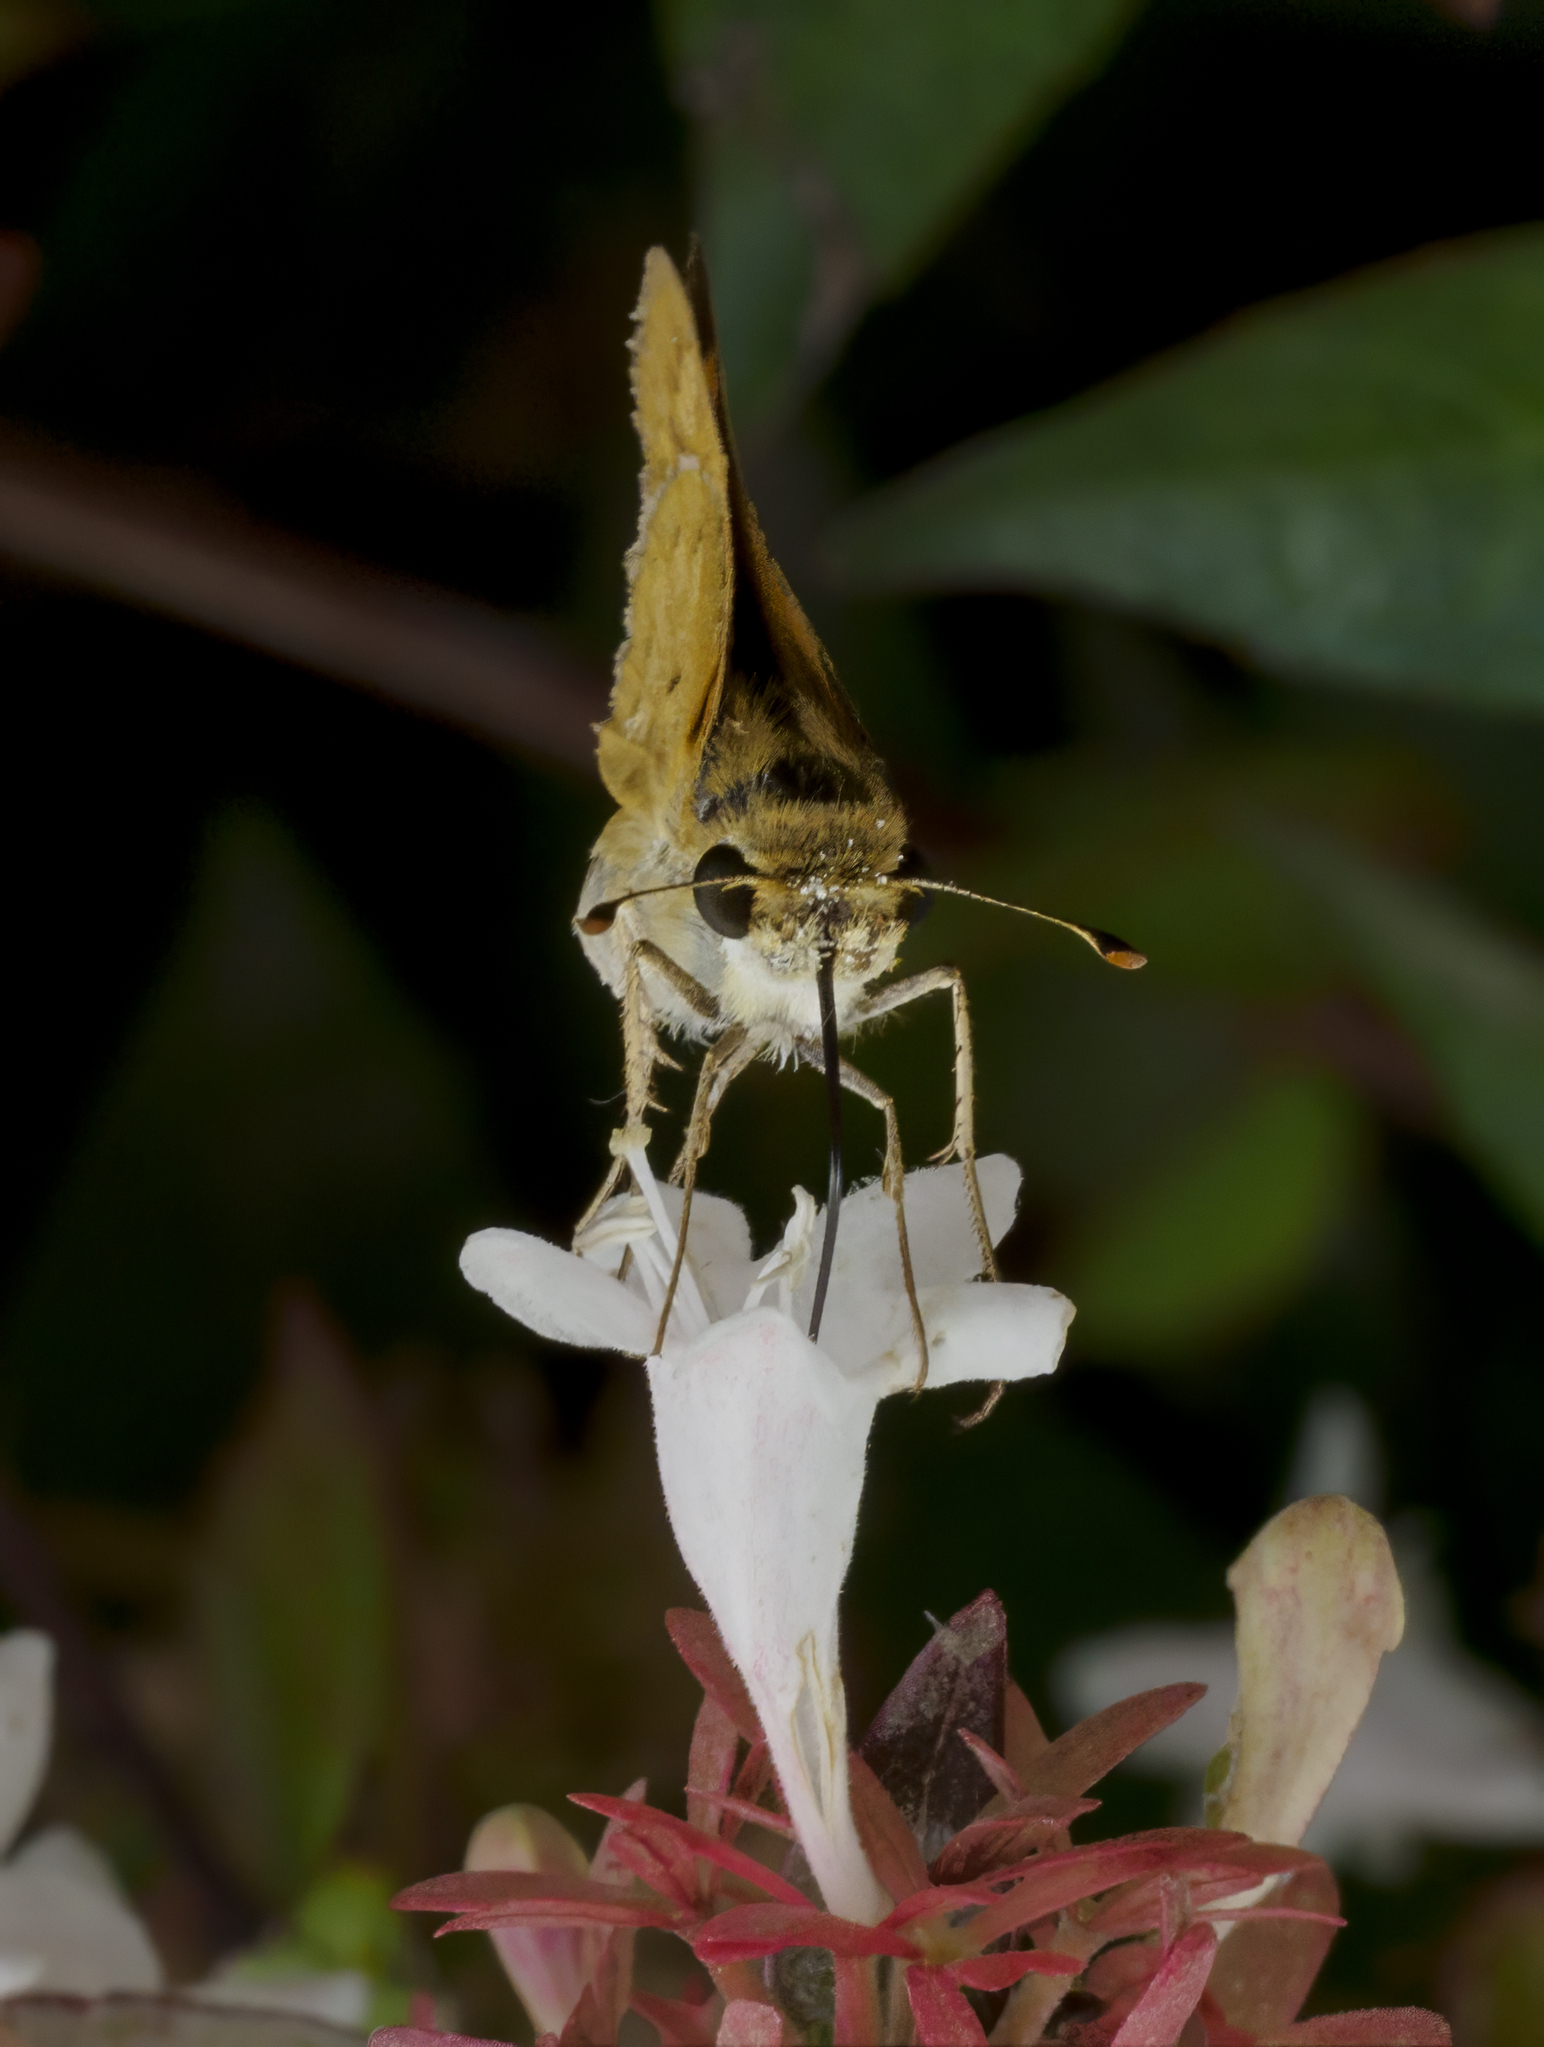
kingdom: Animalia
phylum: Arthropoda
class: Insecta
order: Lepidoptera
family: Hesperiidae
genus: Hylephila
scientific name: Hylephila phyleus
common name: Fiery skipper
